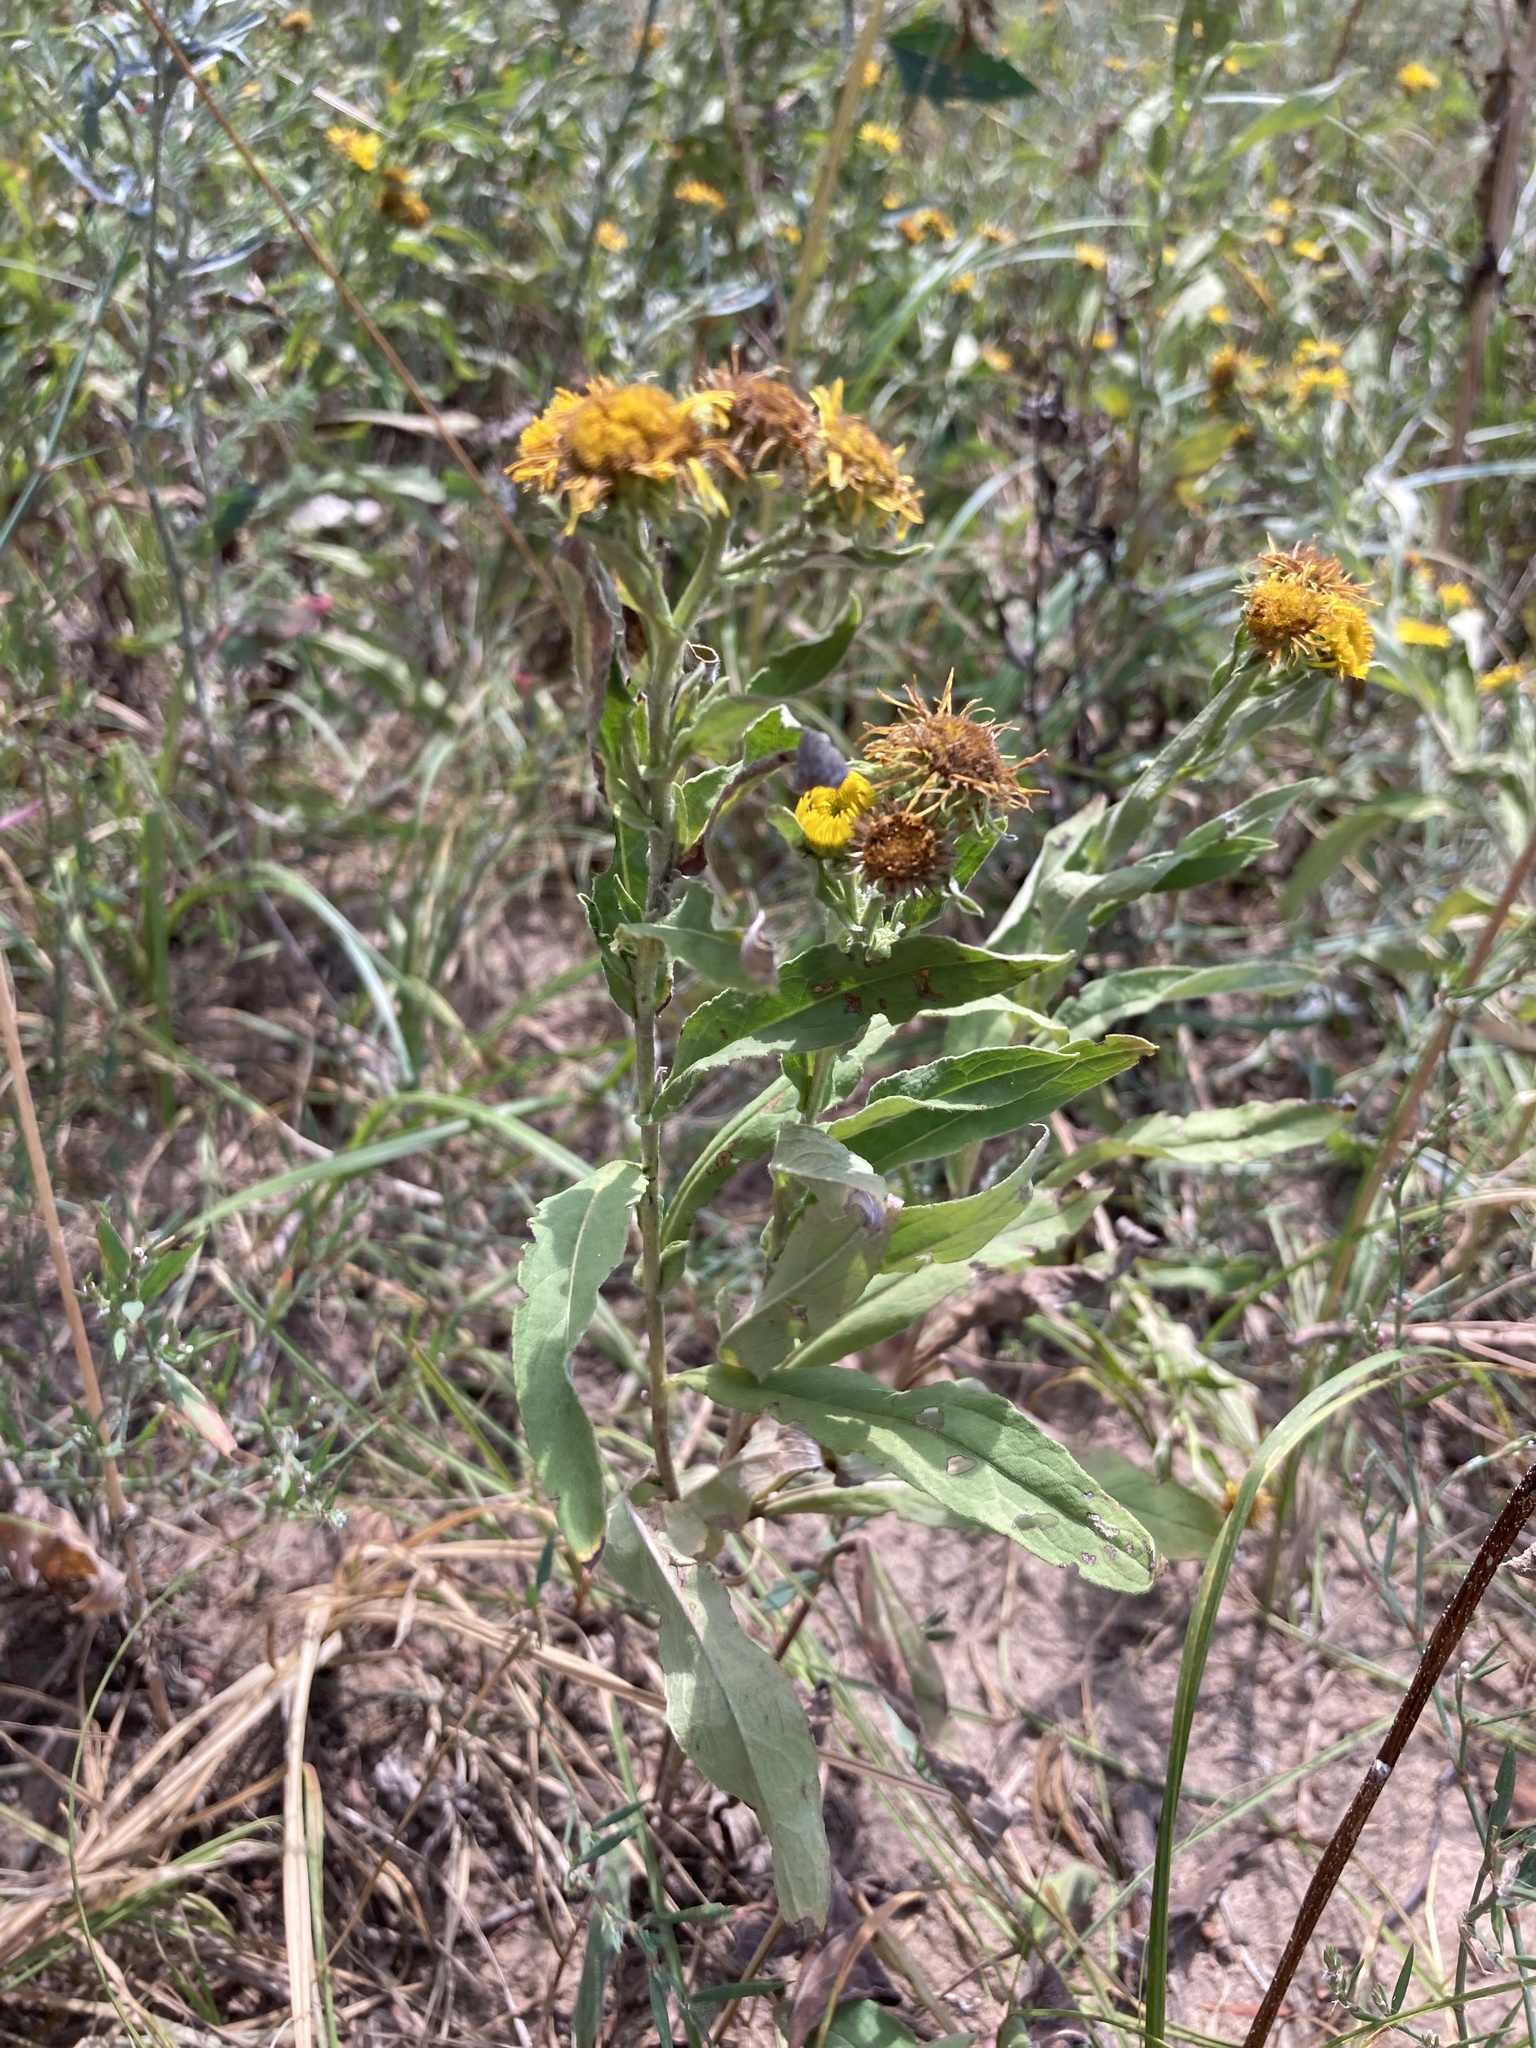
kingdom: Plantae
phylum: Tracheophyta
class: Magnoliopsida
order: Asterales
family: Asteraceae
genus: Pentanema
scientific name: Pentanema britannicum
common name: British elecampane
